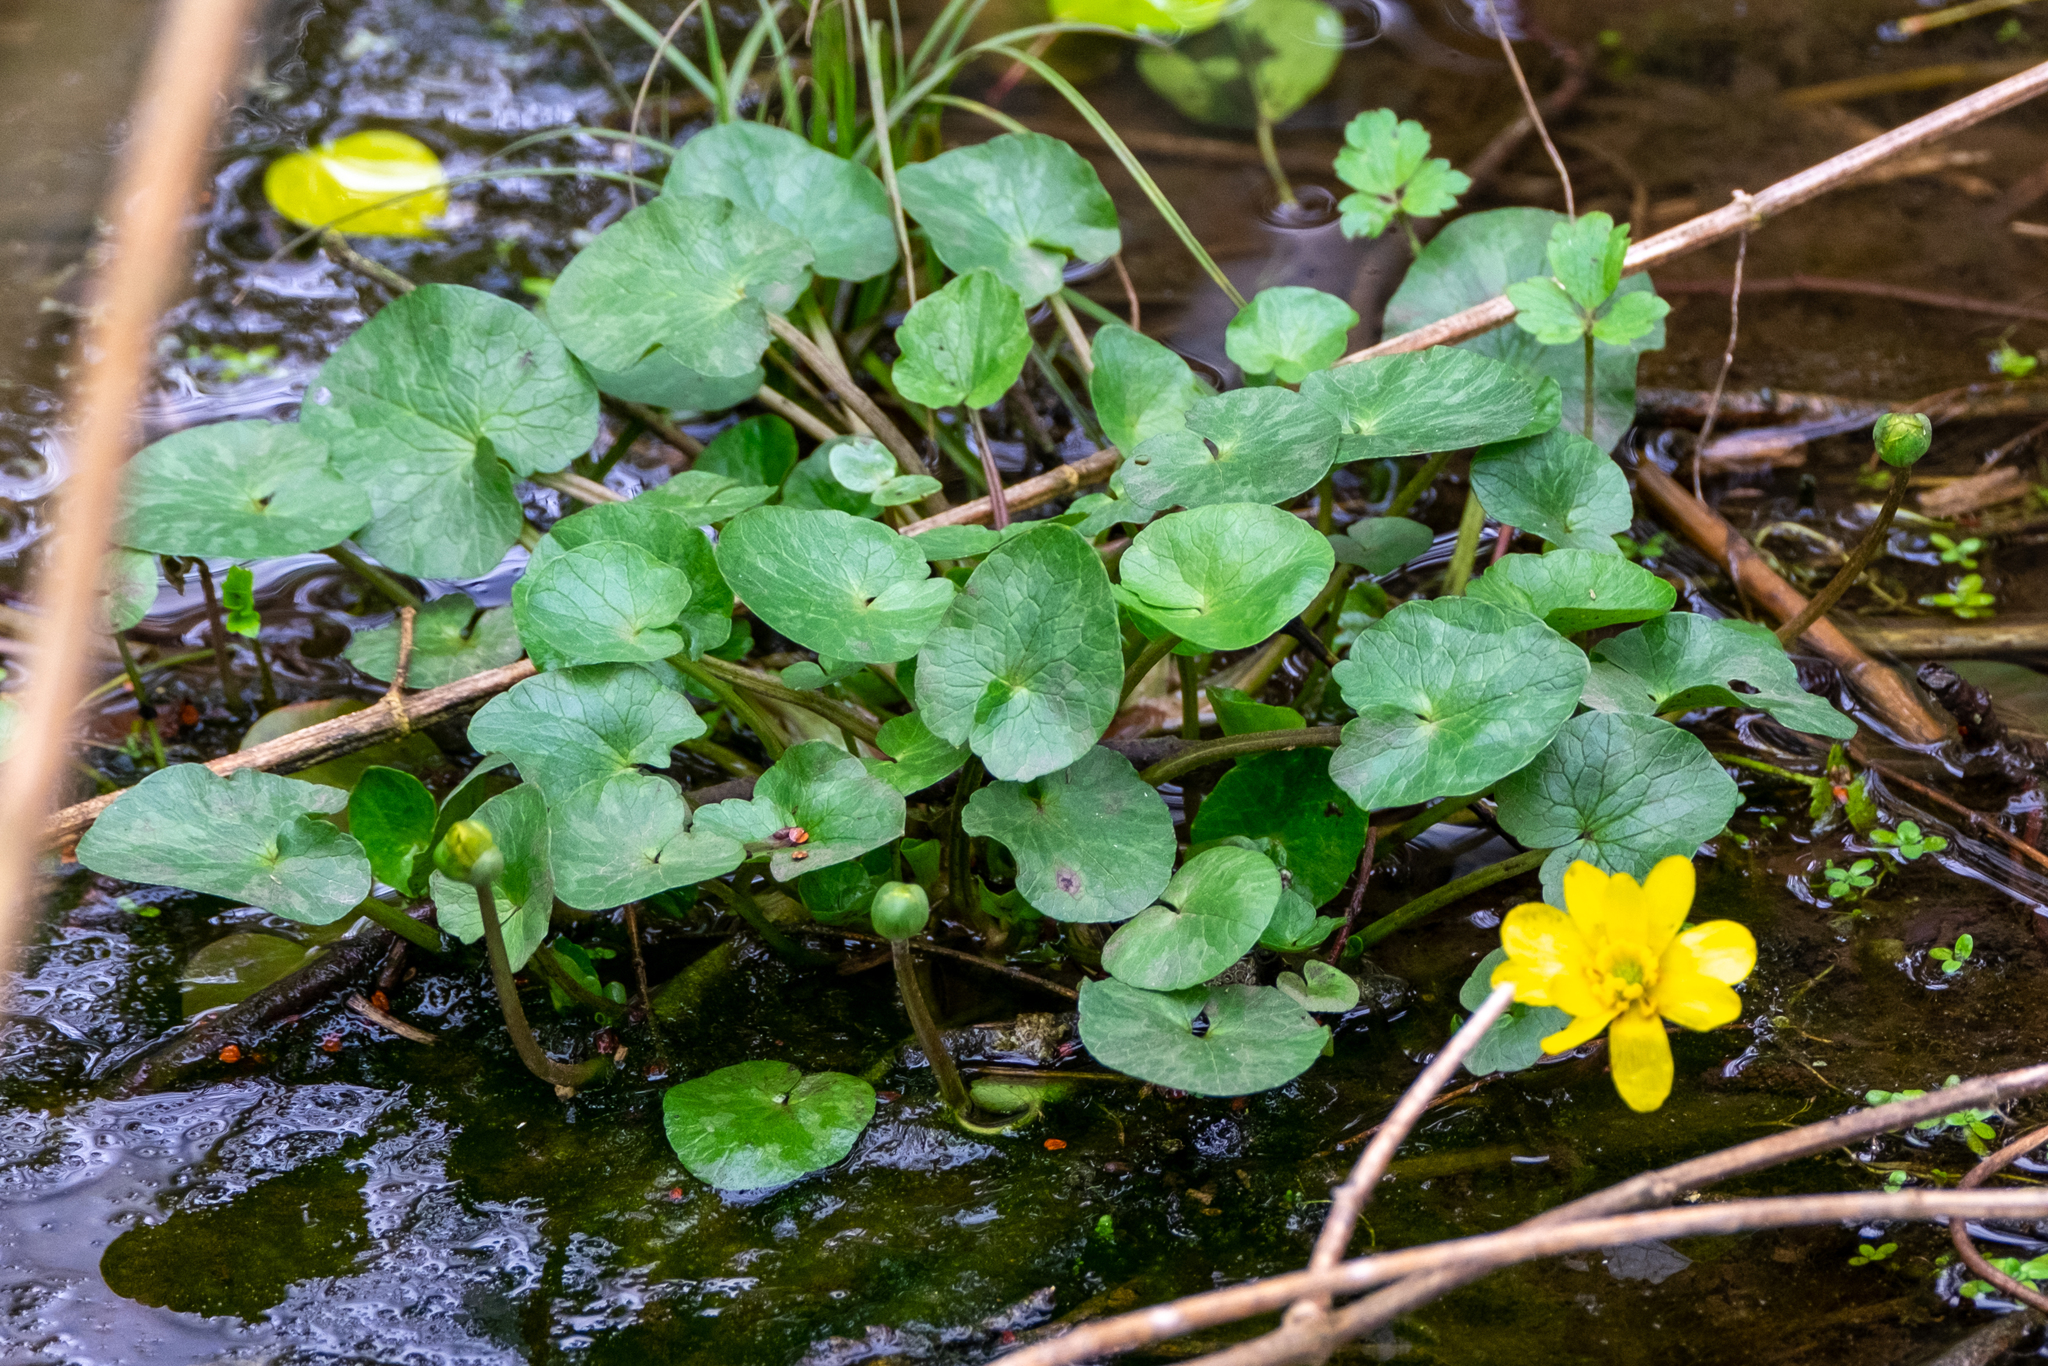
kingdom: Plantae
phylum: Tracheophyta
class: Magnoliopsida
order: Ranunculales
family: Ranunculaceae
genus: Ficaria
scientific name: Ficaria verna
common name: Lesser celandine
